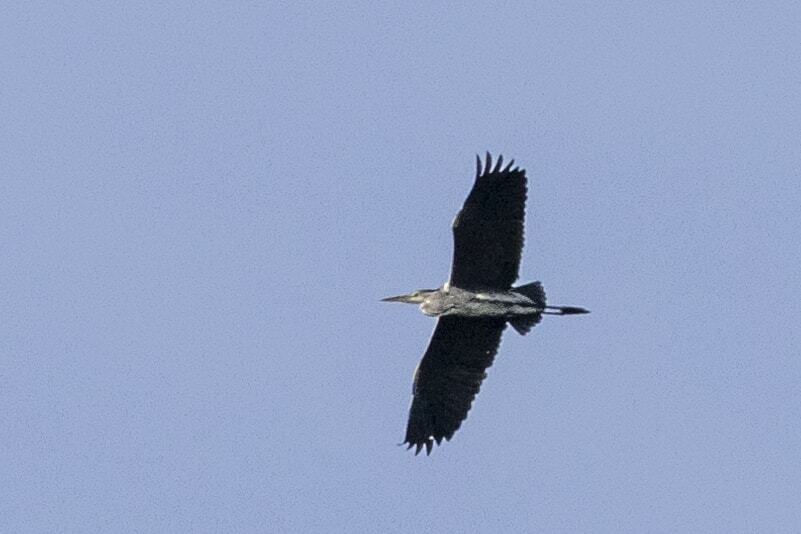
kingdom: Animalia
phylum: Chordata
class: Aves
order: Pelecaniformes
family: Ardeidae
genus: Ardea
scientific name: Ardea cinerea
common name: Grey heron
